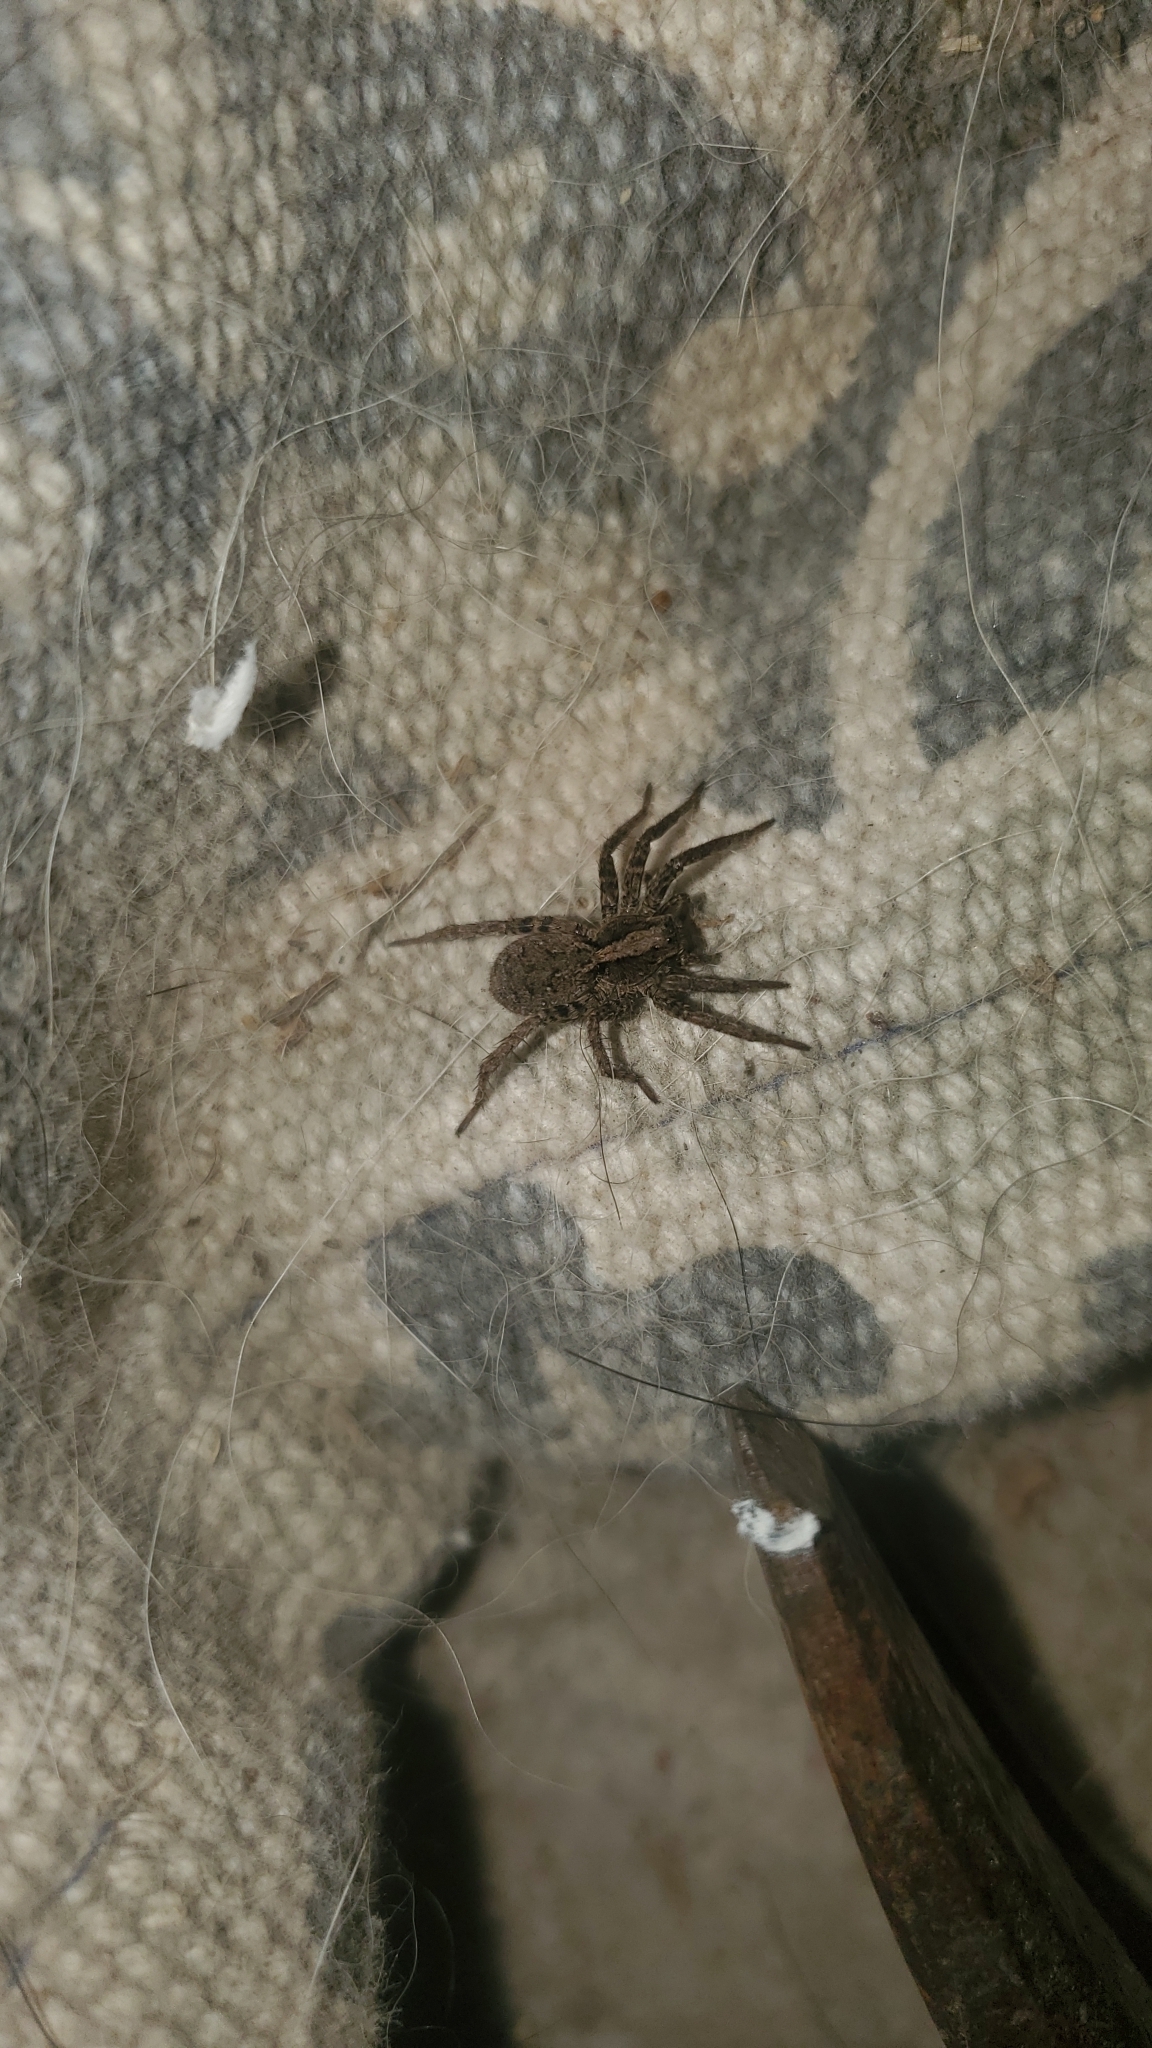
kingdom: Animalia
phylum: Arthropoda
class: Arachnida
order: Araneae
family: Lycosidae
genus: Alopecosa
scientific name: Alopecosa kochi
